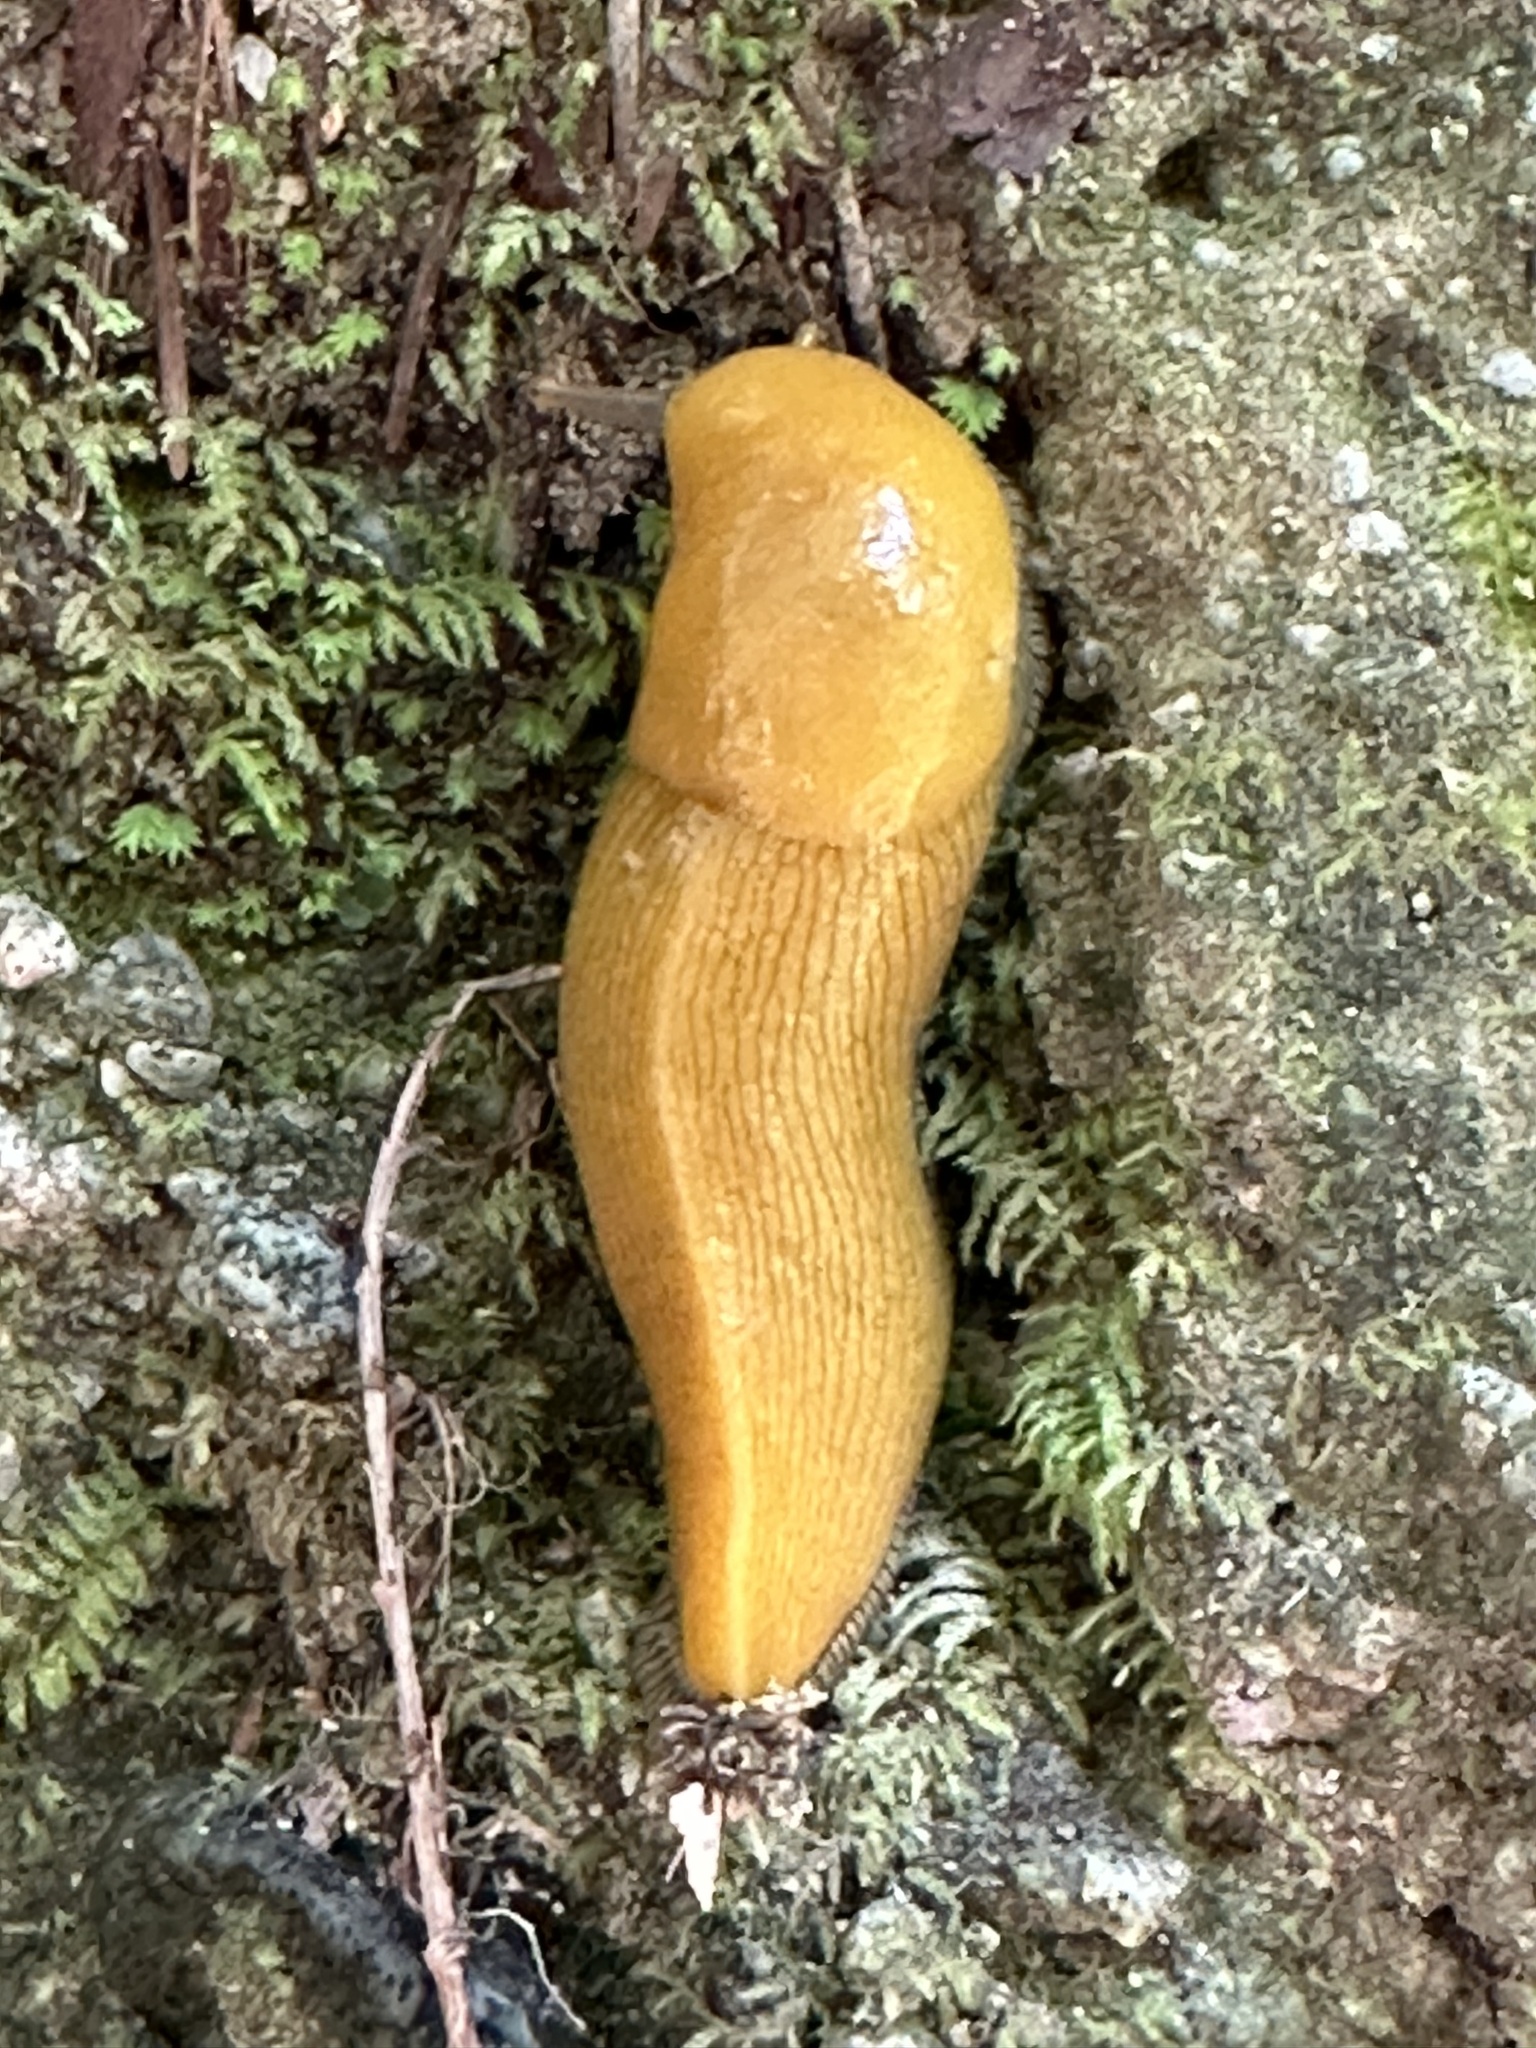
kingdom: Animalia
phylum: Mollusca
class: Gastropoda
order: Stylommatophora
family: Ariolimacidae
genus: Ariolimax
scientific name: Ariolimax dolichophallus
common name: Slender banana slug
